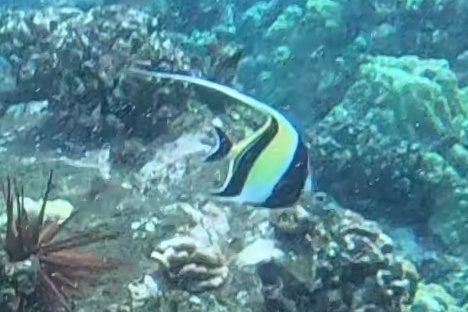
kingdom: Animalia
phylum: Chordata
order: Perciformes
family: Zanclidae
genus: Zanclus
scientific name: Zanclus cornutus
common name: Moorish idol
